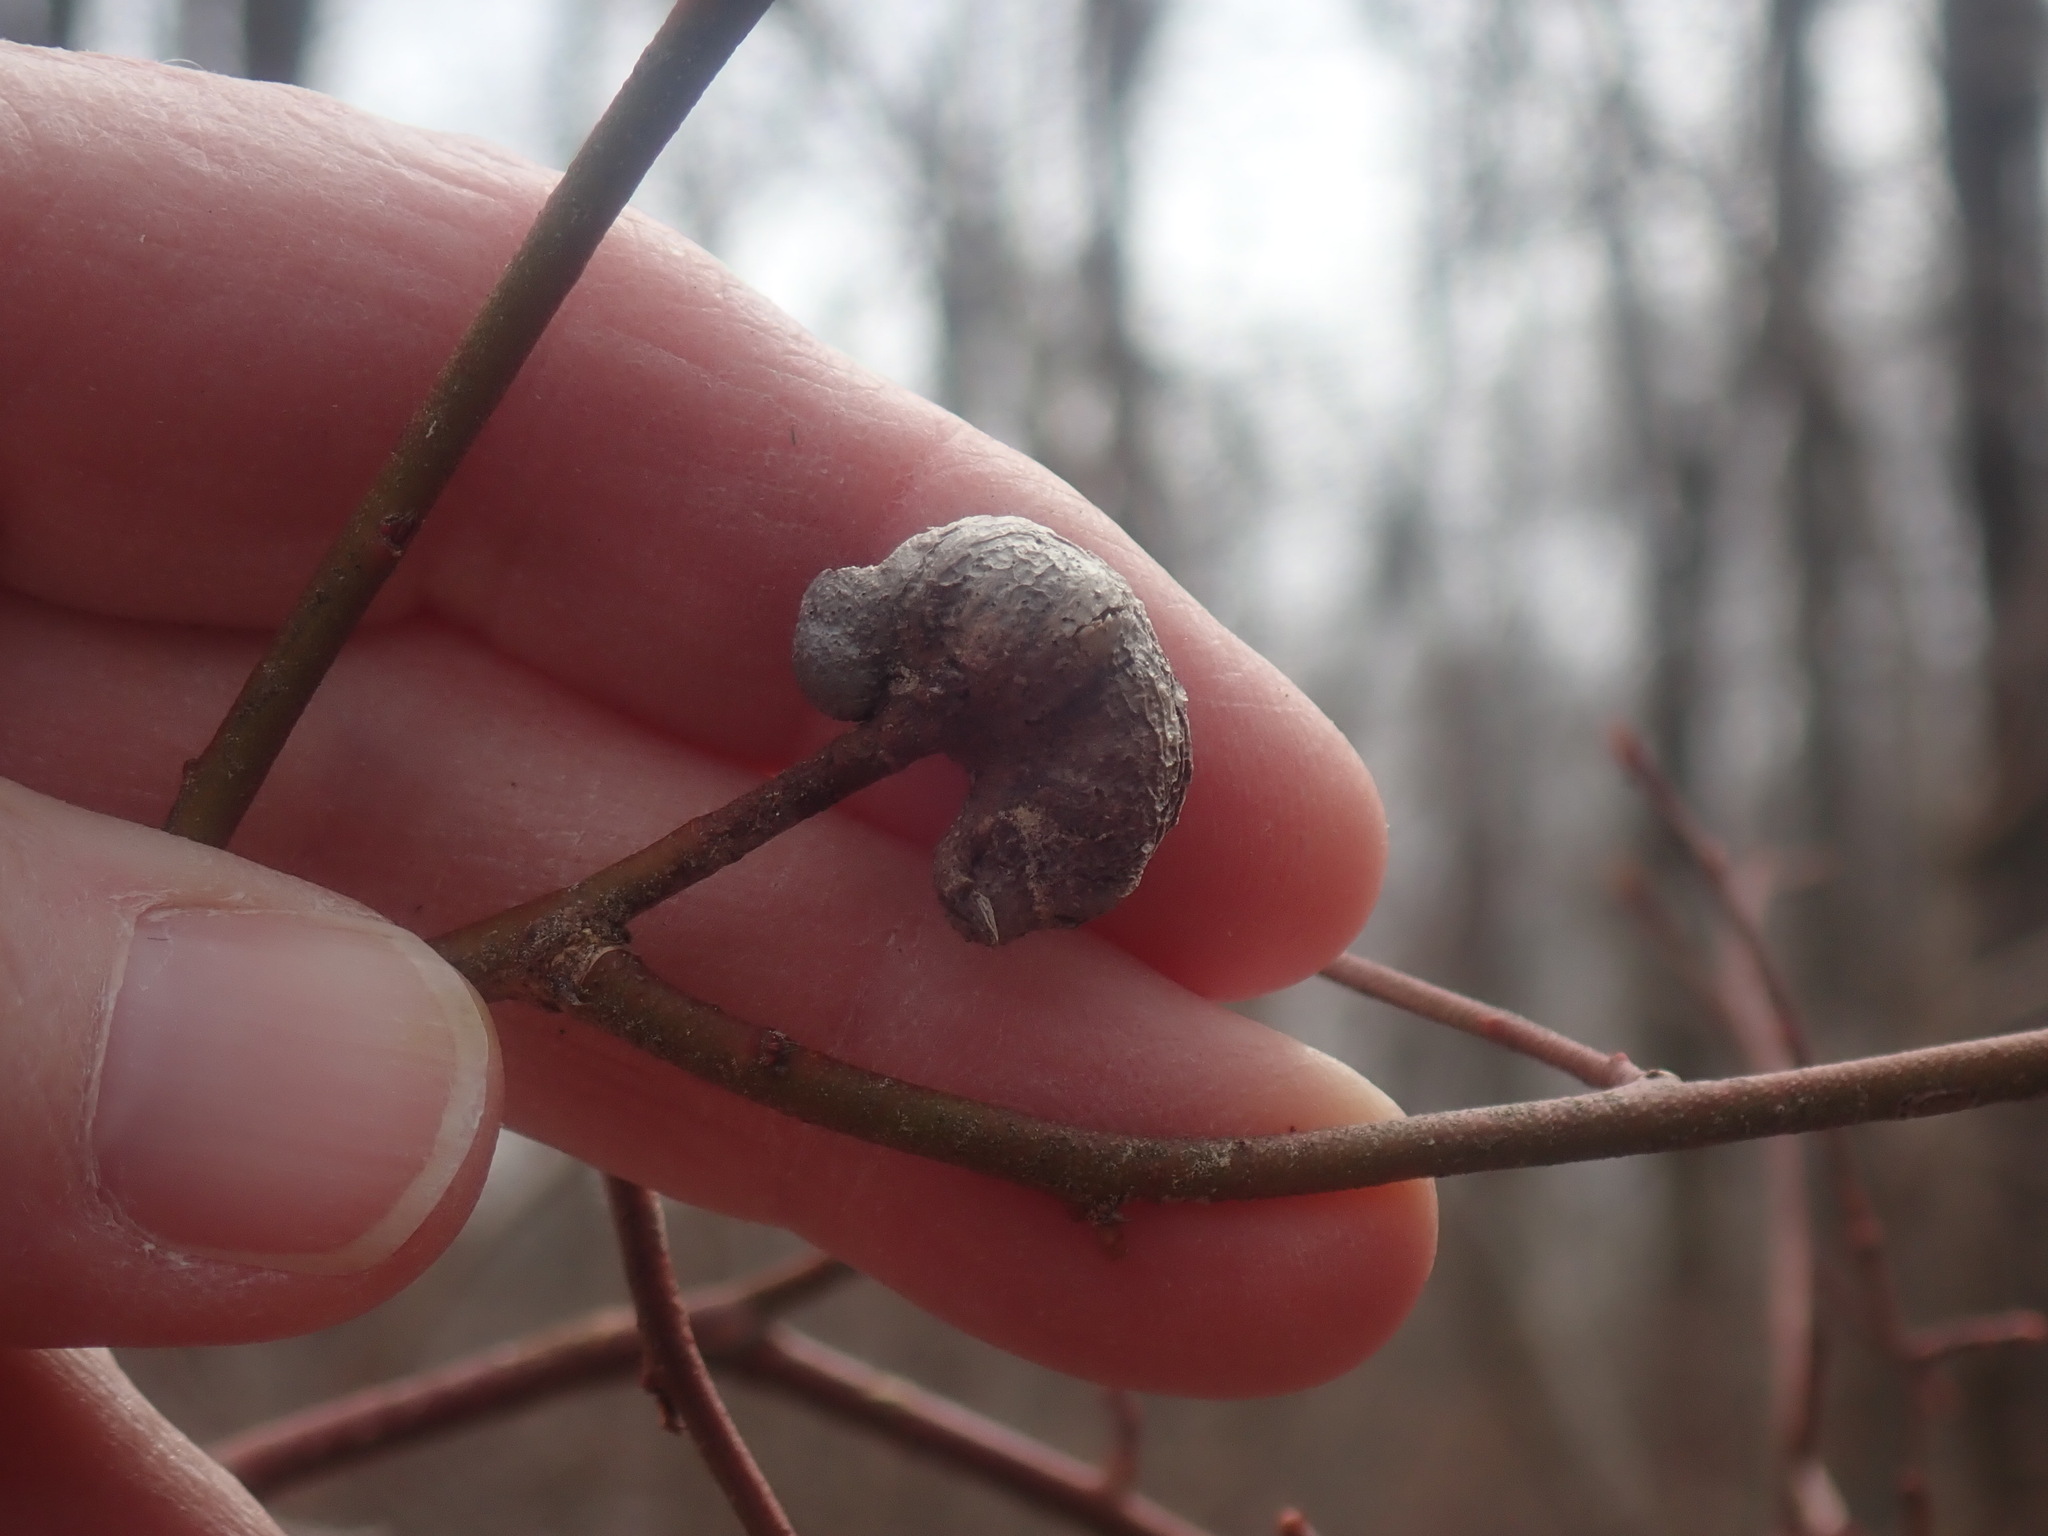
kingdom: Animalia
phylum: Arthropoda
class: Insecta
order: Hymenoptera
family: Pteromalidae
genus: Hemadas
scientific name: Hemadas nubilipennis
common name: Blueberry stem gall wasp
